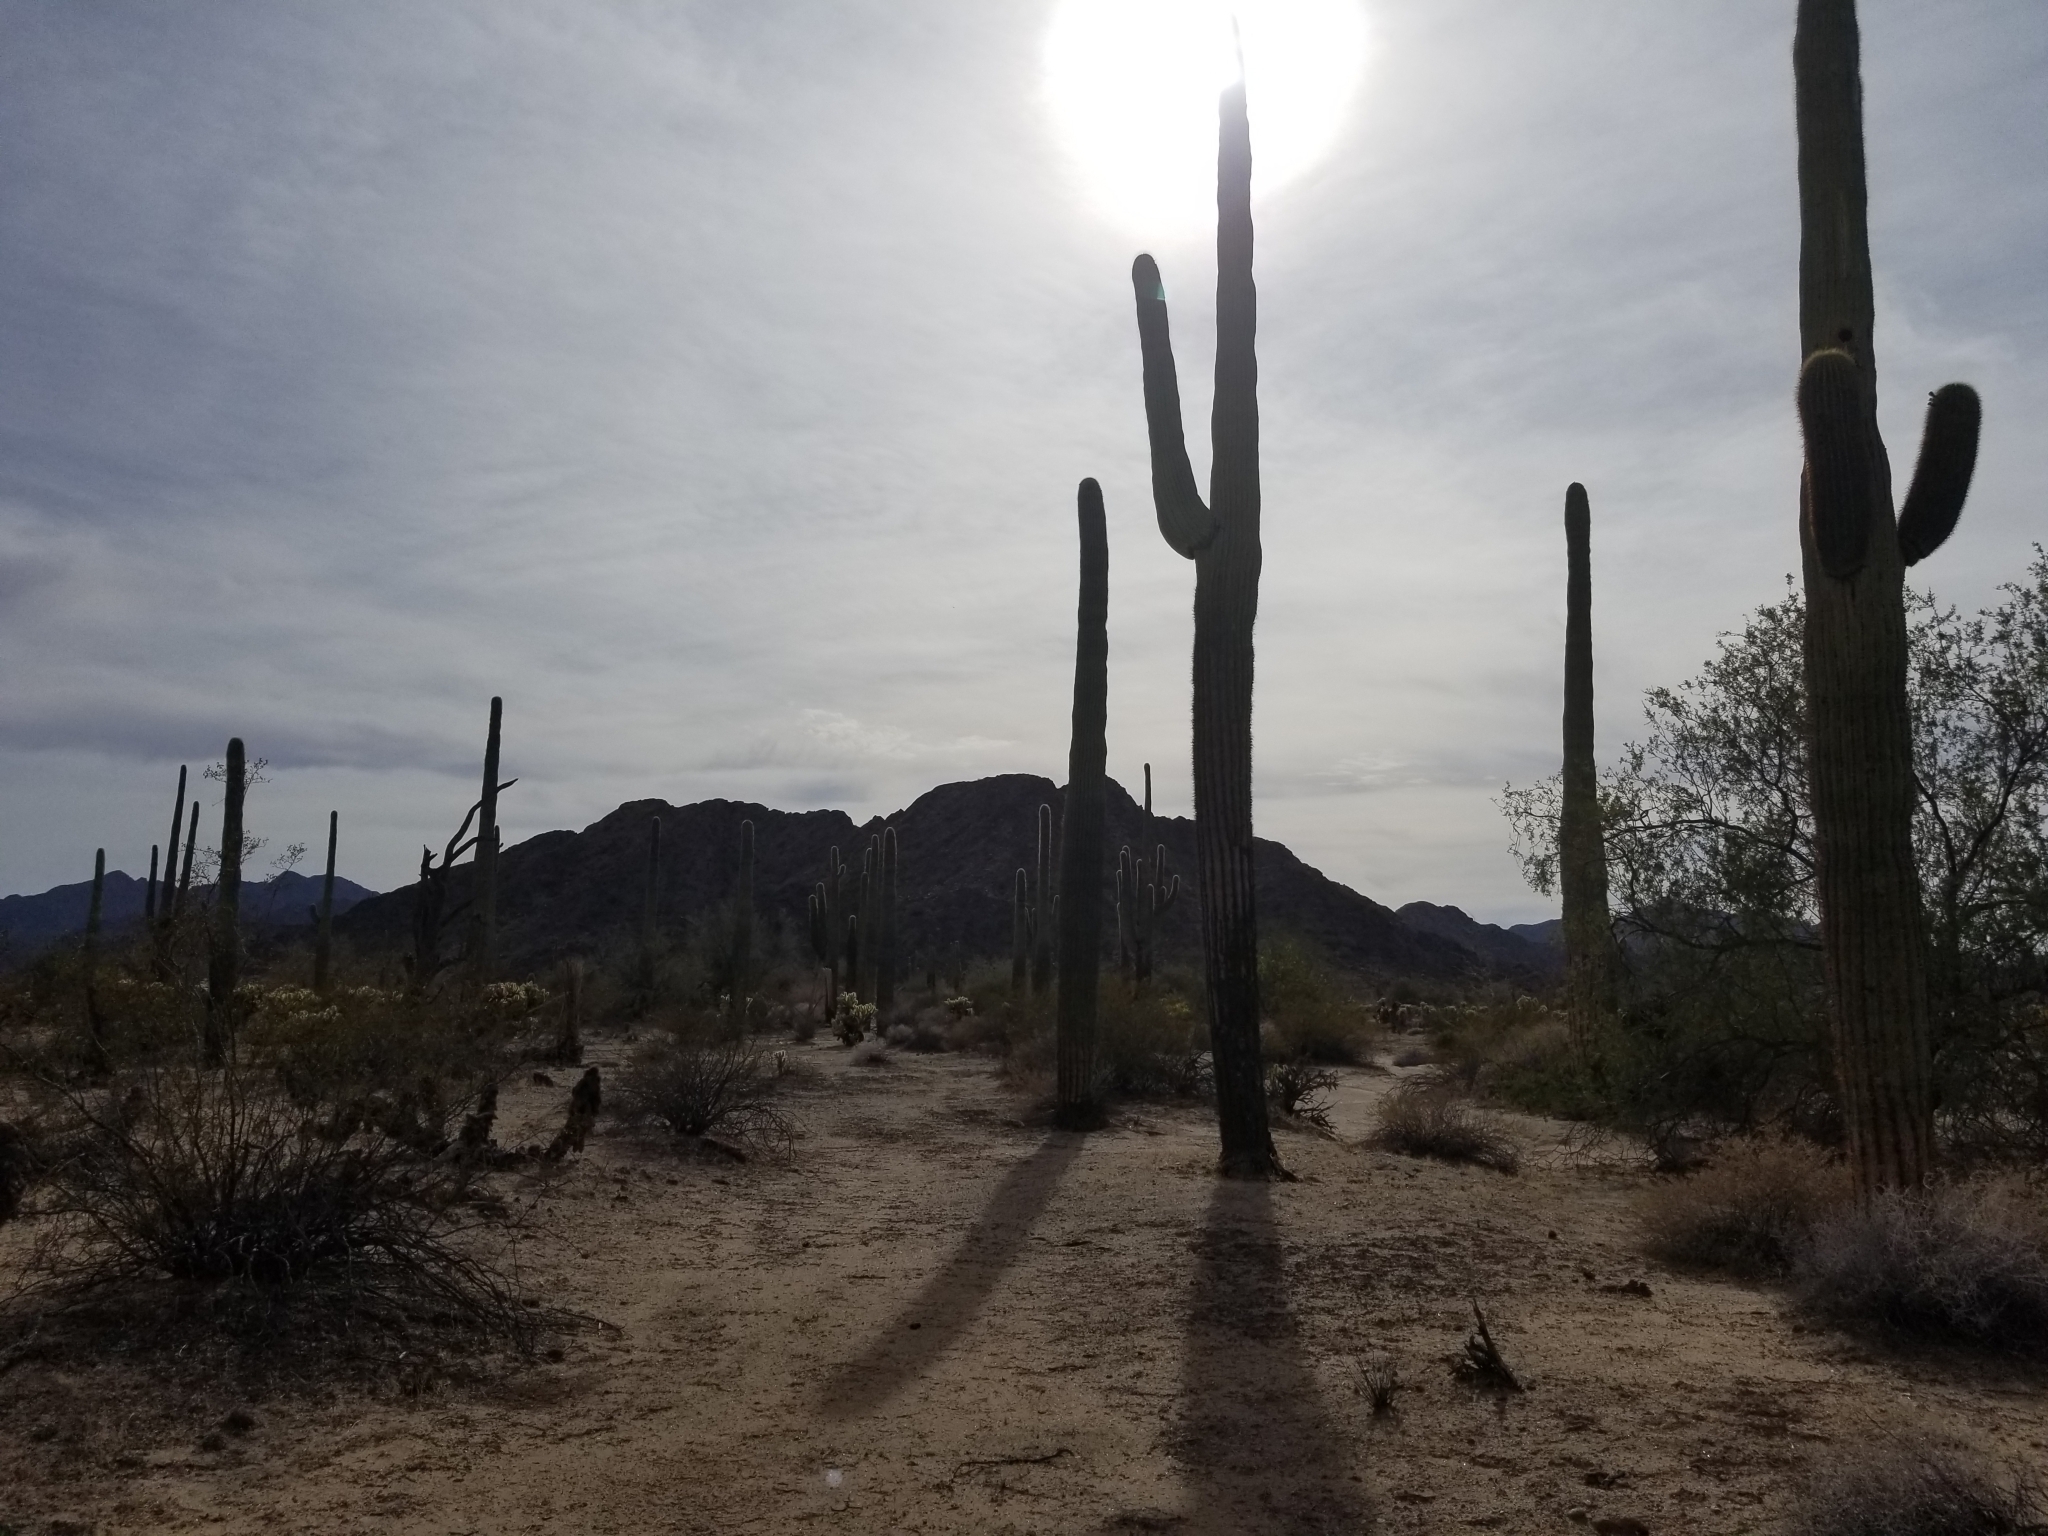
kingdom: Plantae
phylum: Tracheophyta
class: Magnoliopsida
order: Caryophyllales
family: Cactaceae
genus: Carnegiea
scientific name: Carnegiea gigantea
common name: Saguaro
